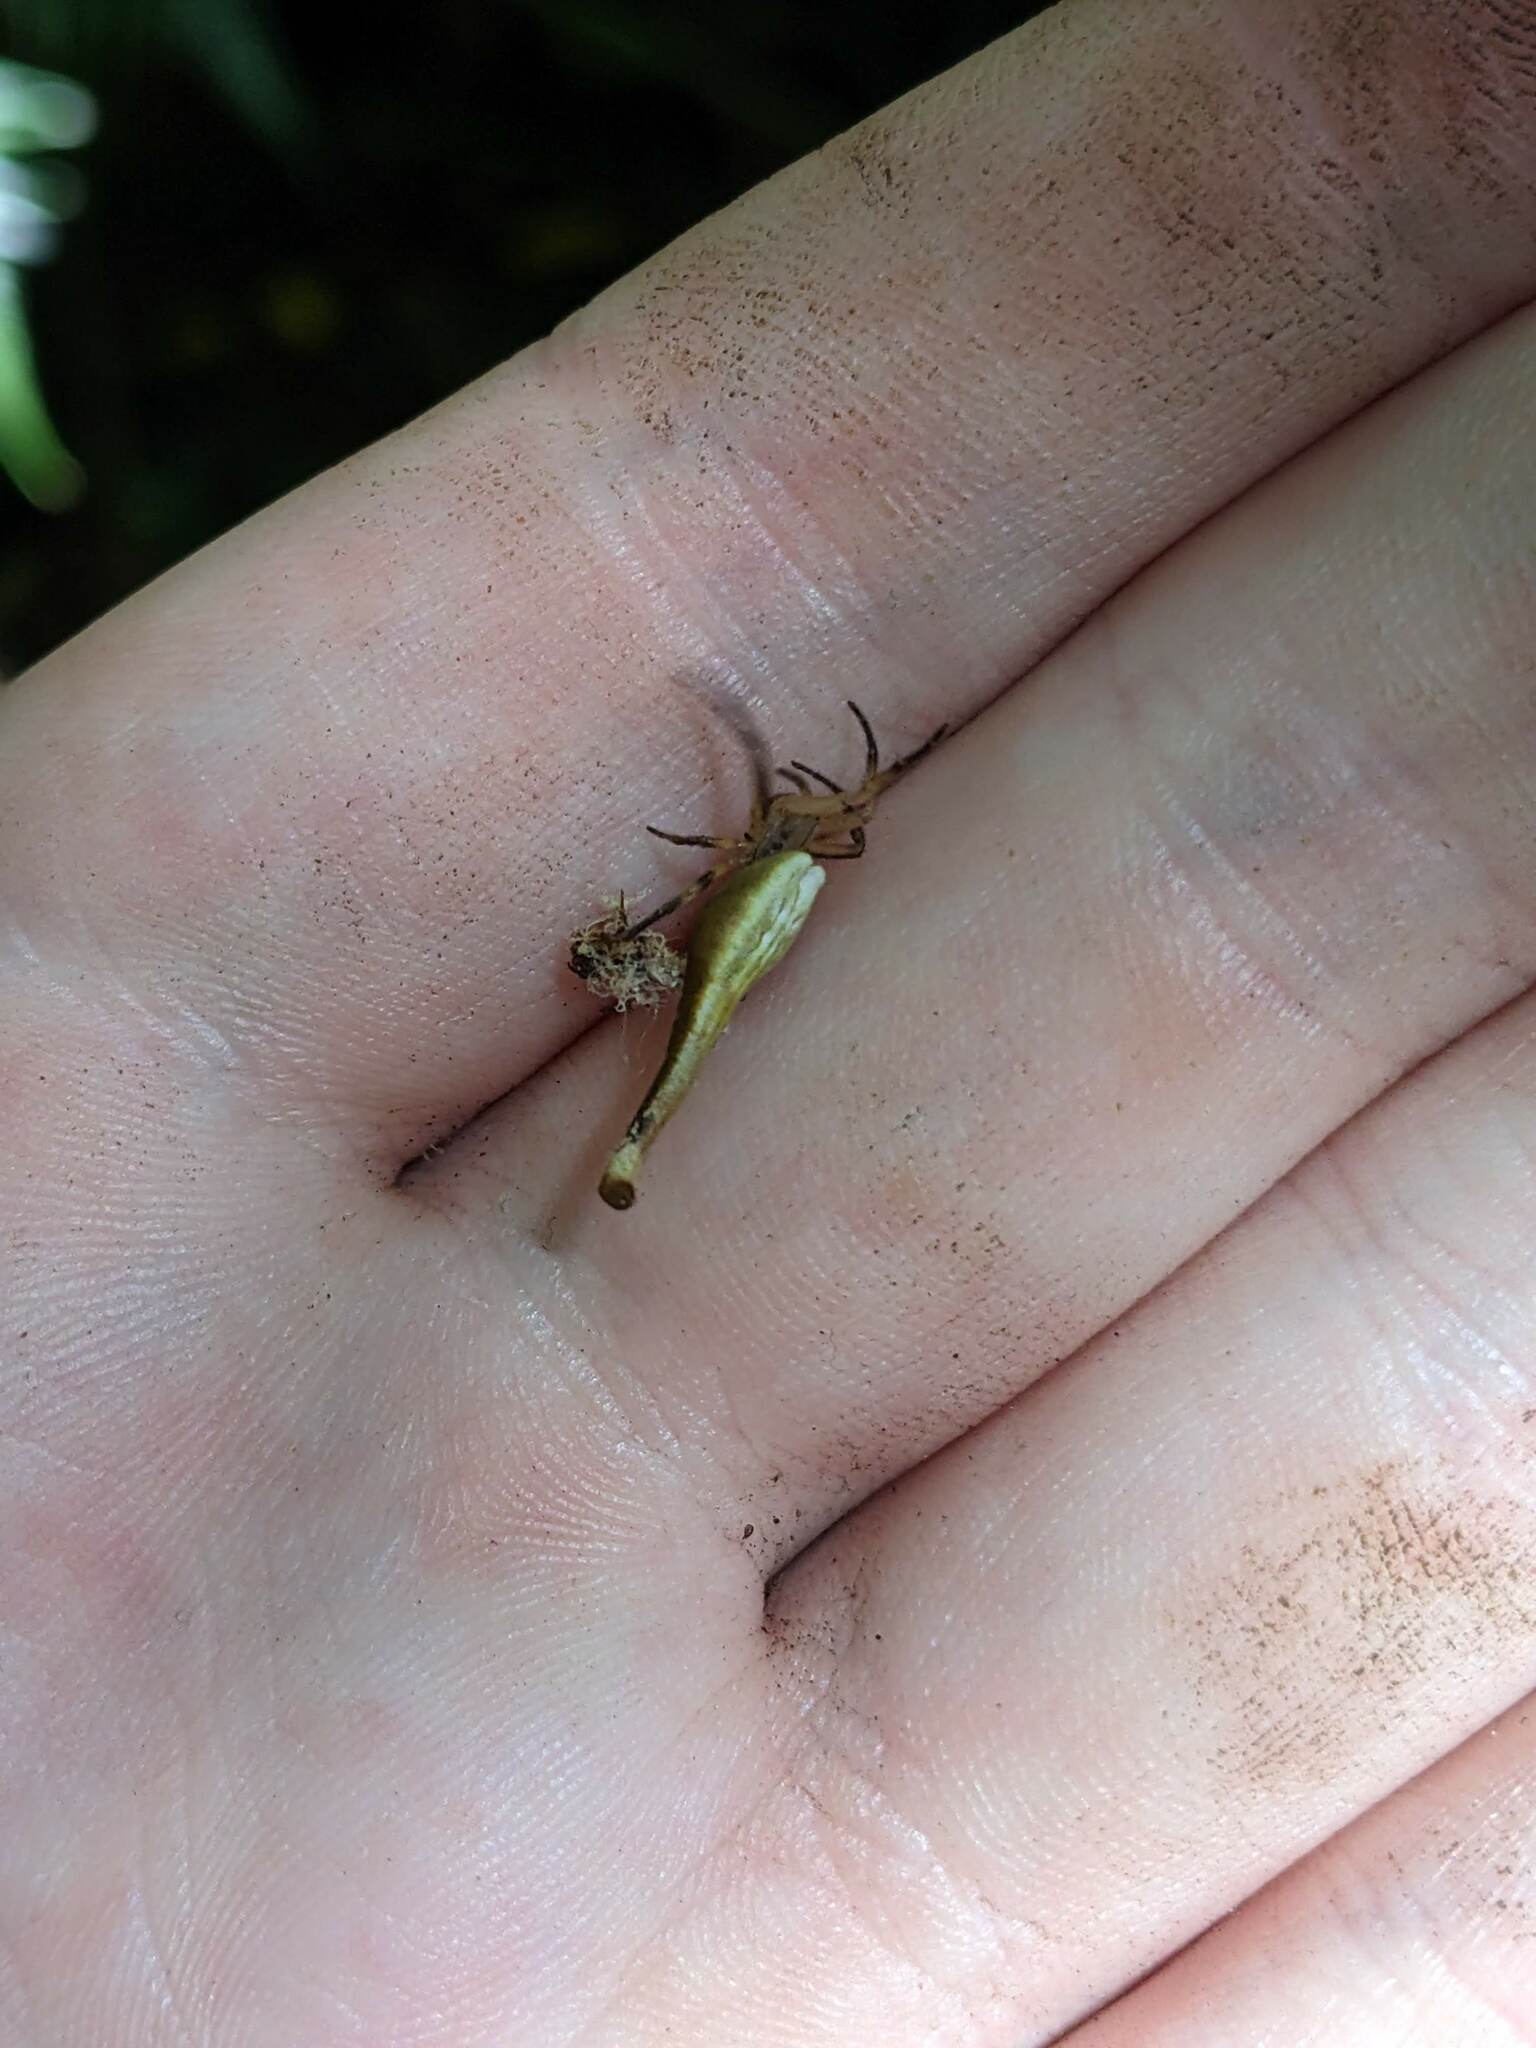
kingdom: Animalia
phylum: Arthropoda
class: Arachnida
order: Araneae
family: Araneidae
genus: Arachnura
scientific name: Arachnura feredayi
